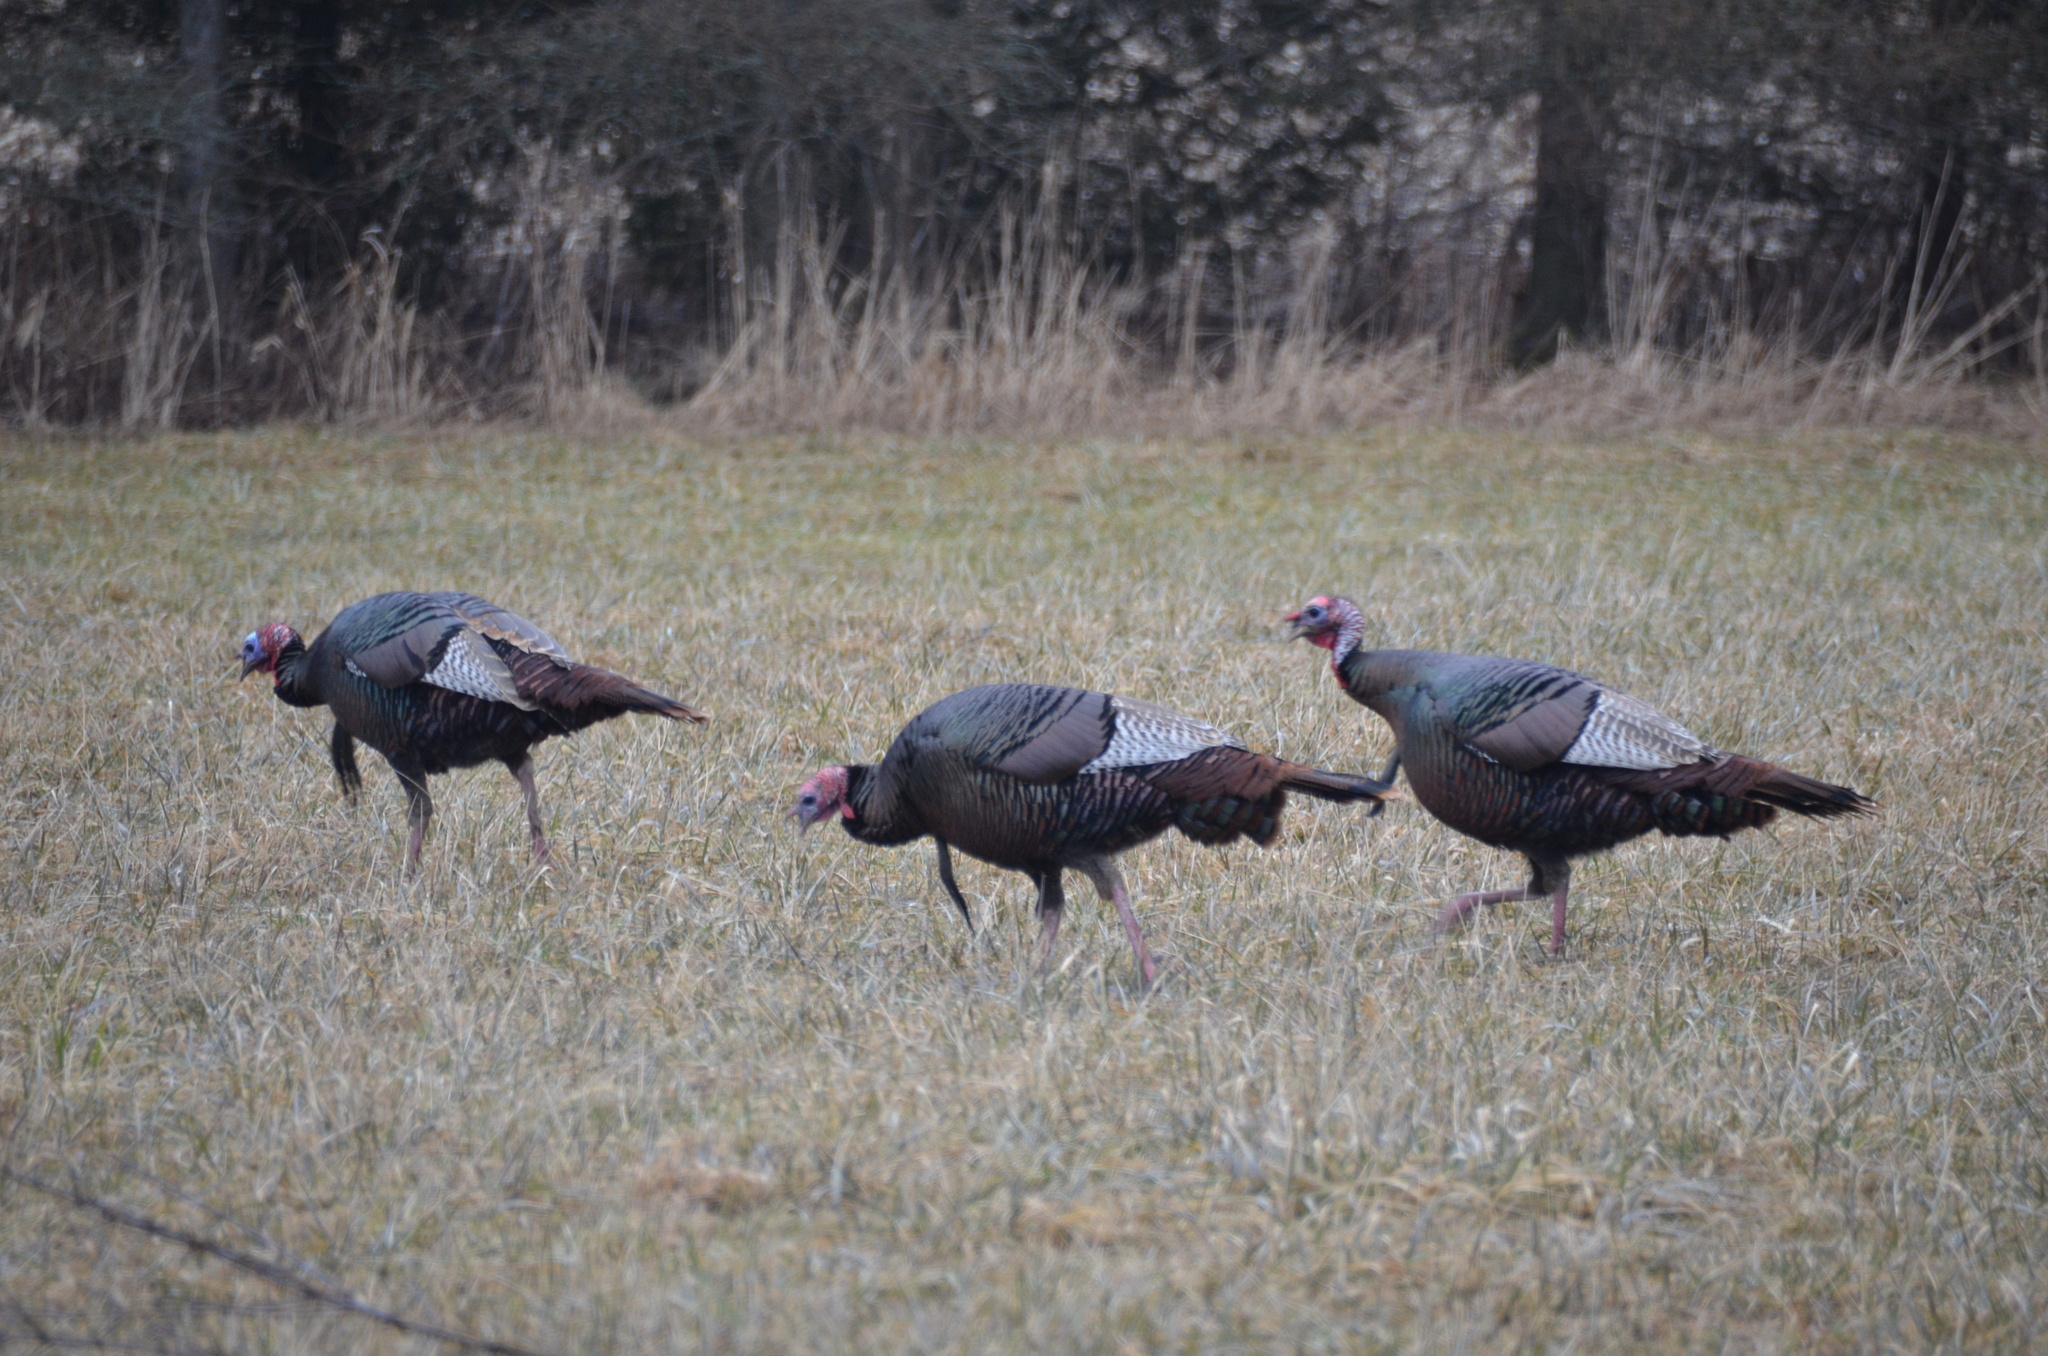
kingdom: Animalia
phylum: Chordata
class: Aves
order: Galliformes
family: Phasianidae
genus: Meleagris
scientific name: Meleagris gallopavo
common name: Wild turkey
